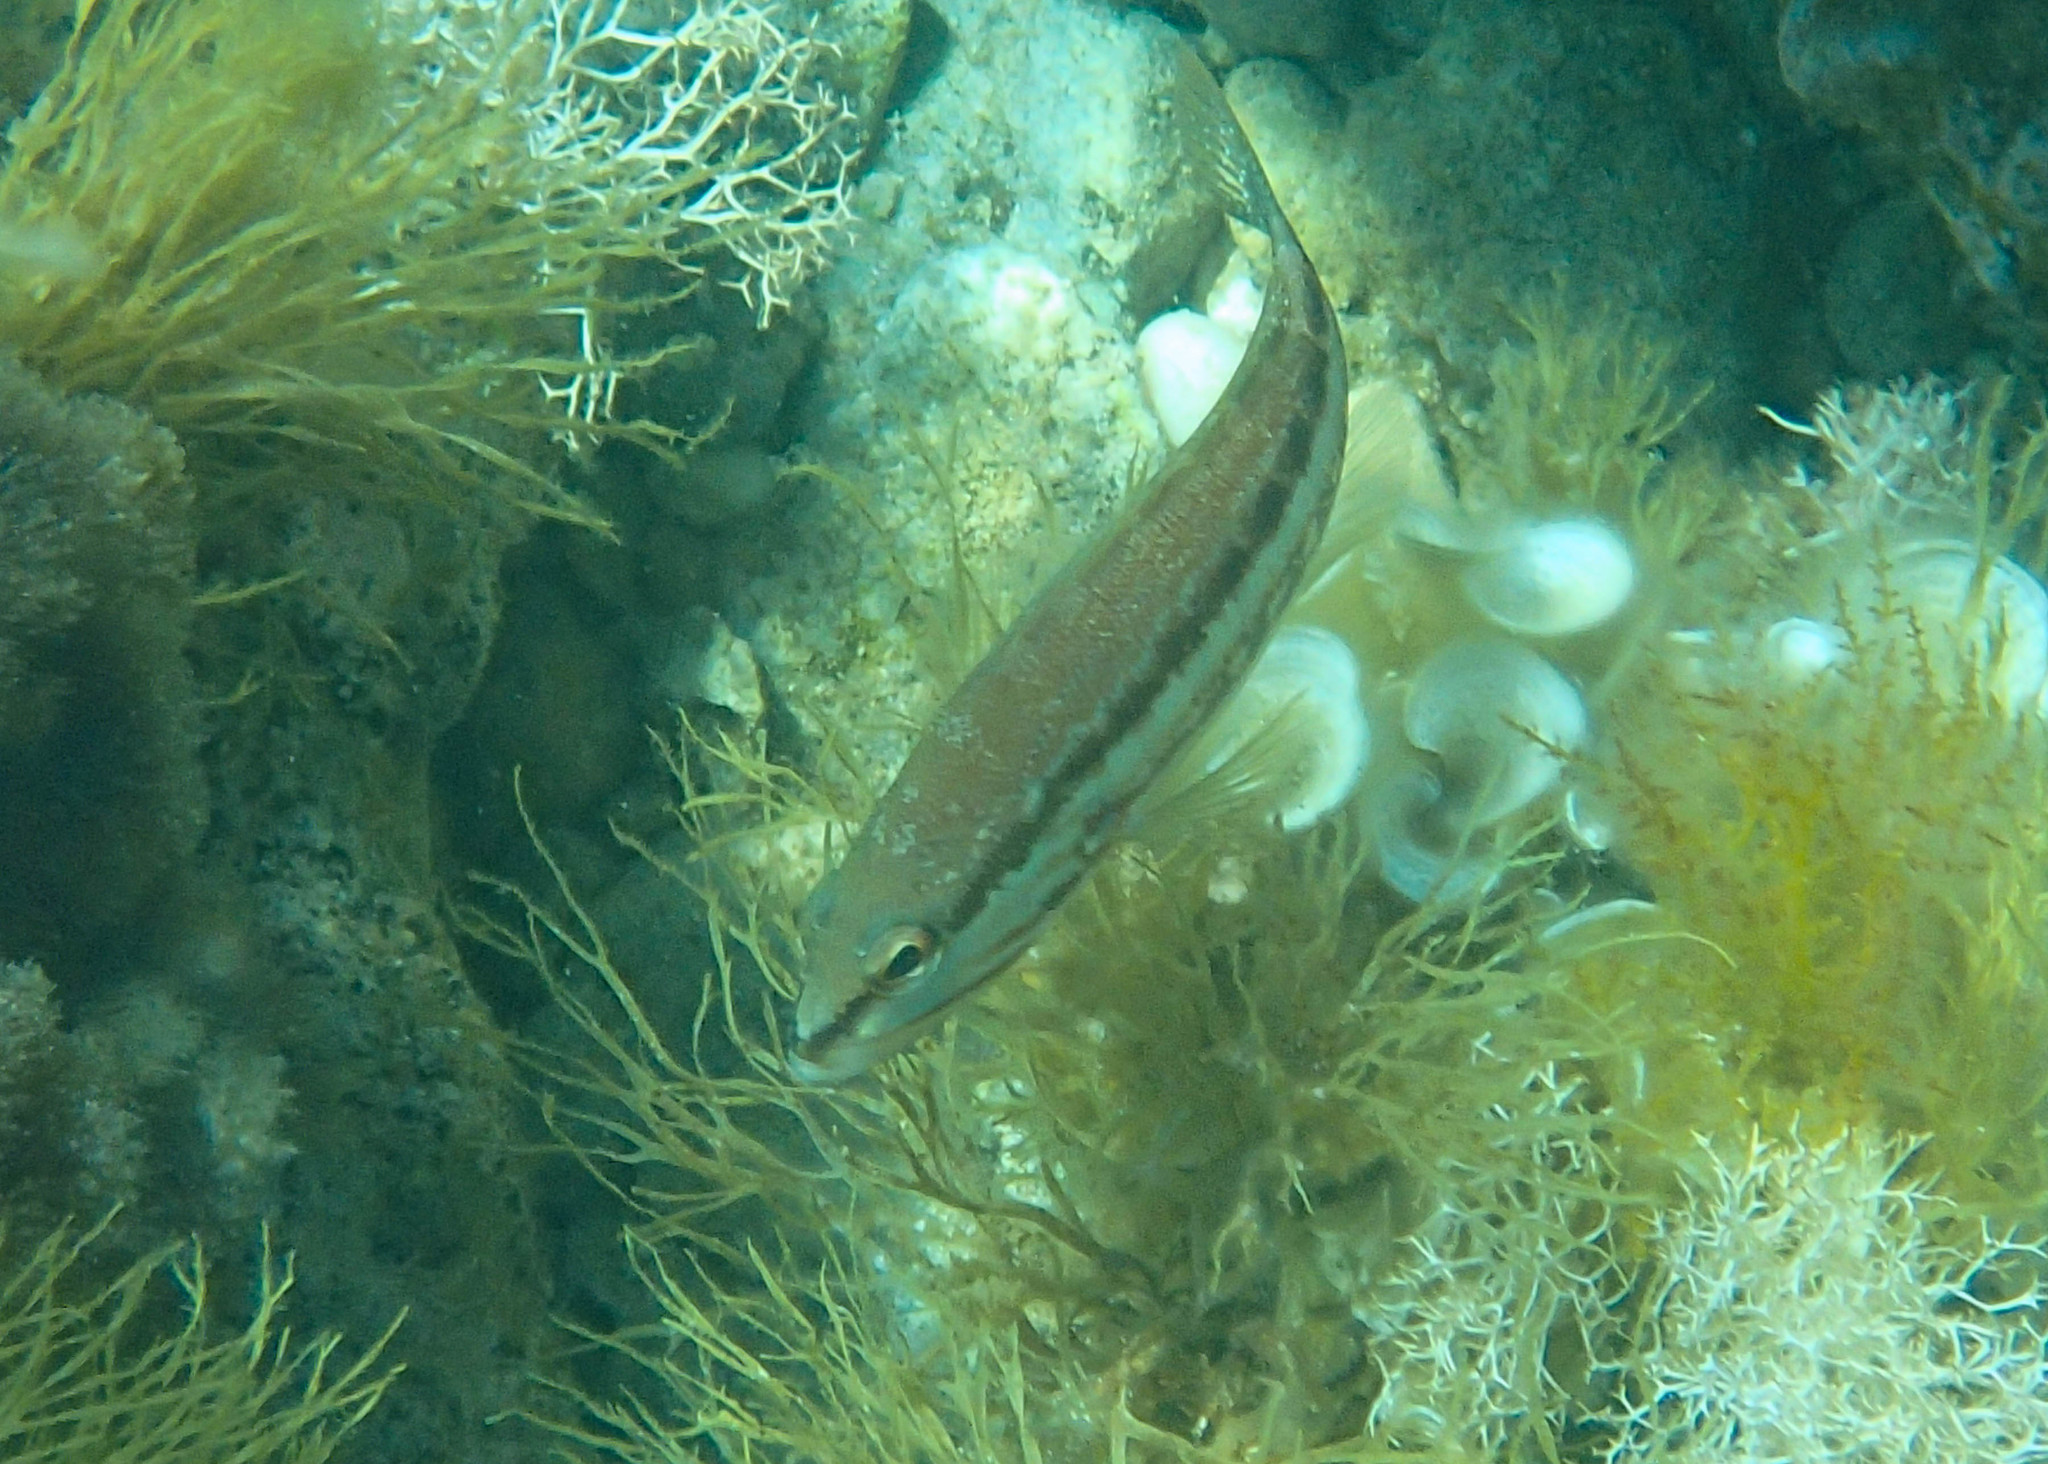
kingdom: Animalia
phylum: Chordata
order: Perciformes
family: Serranidae
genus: Serranus
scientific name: Serranus cabrilla
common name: Comber
